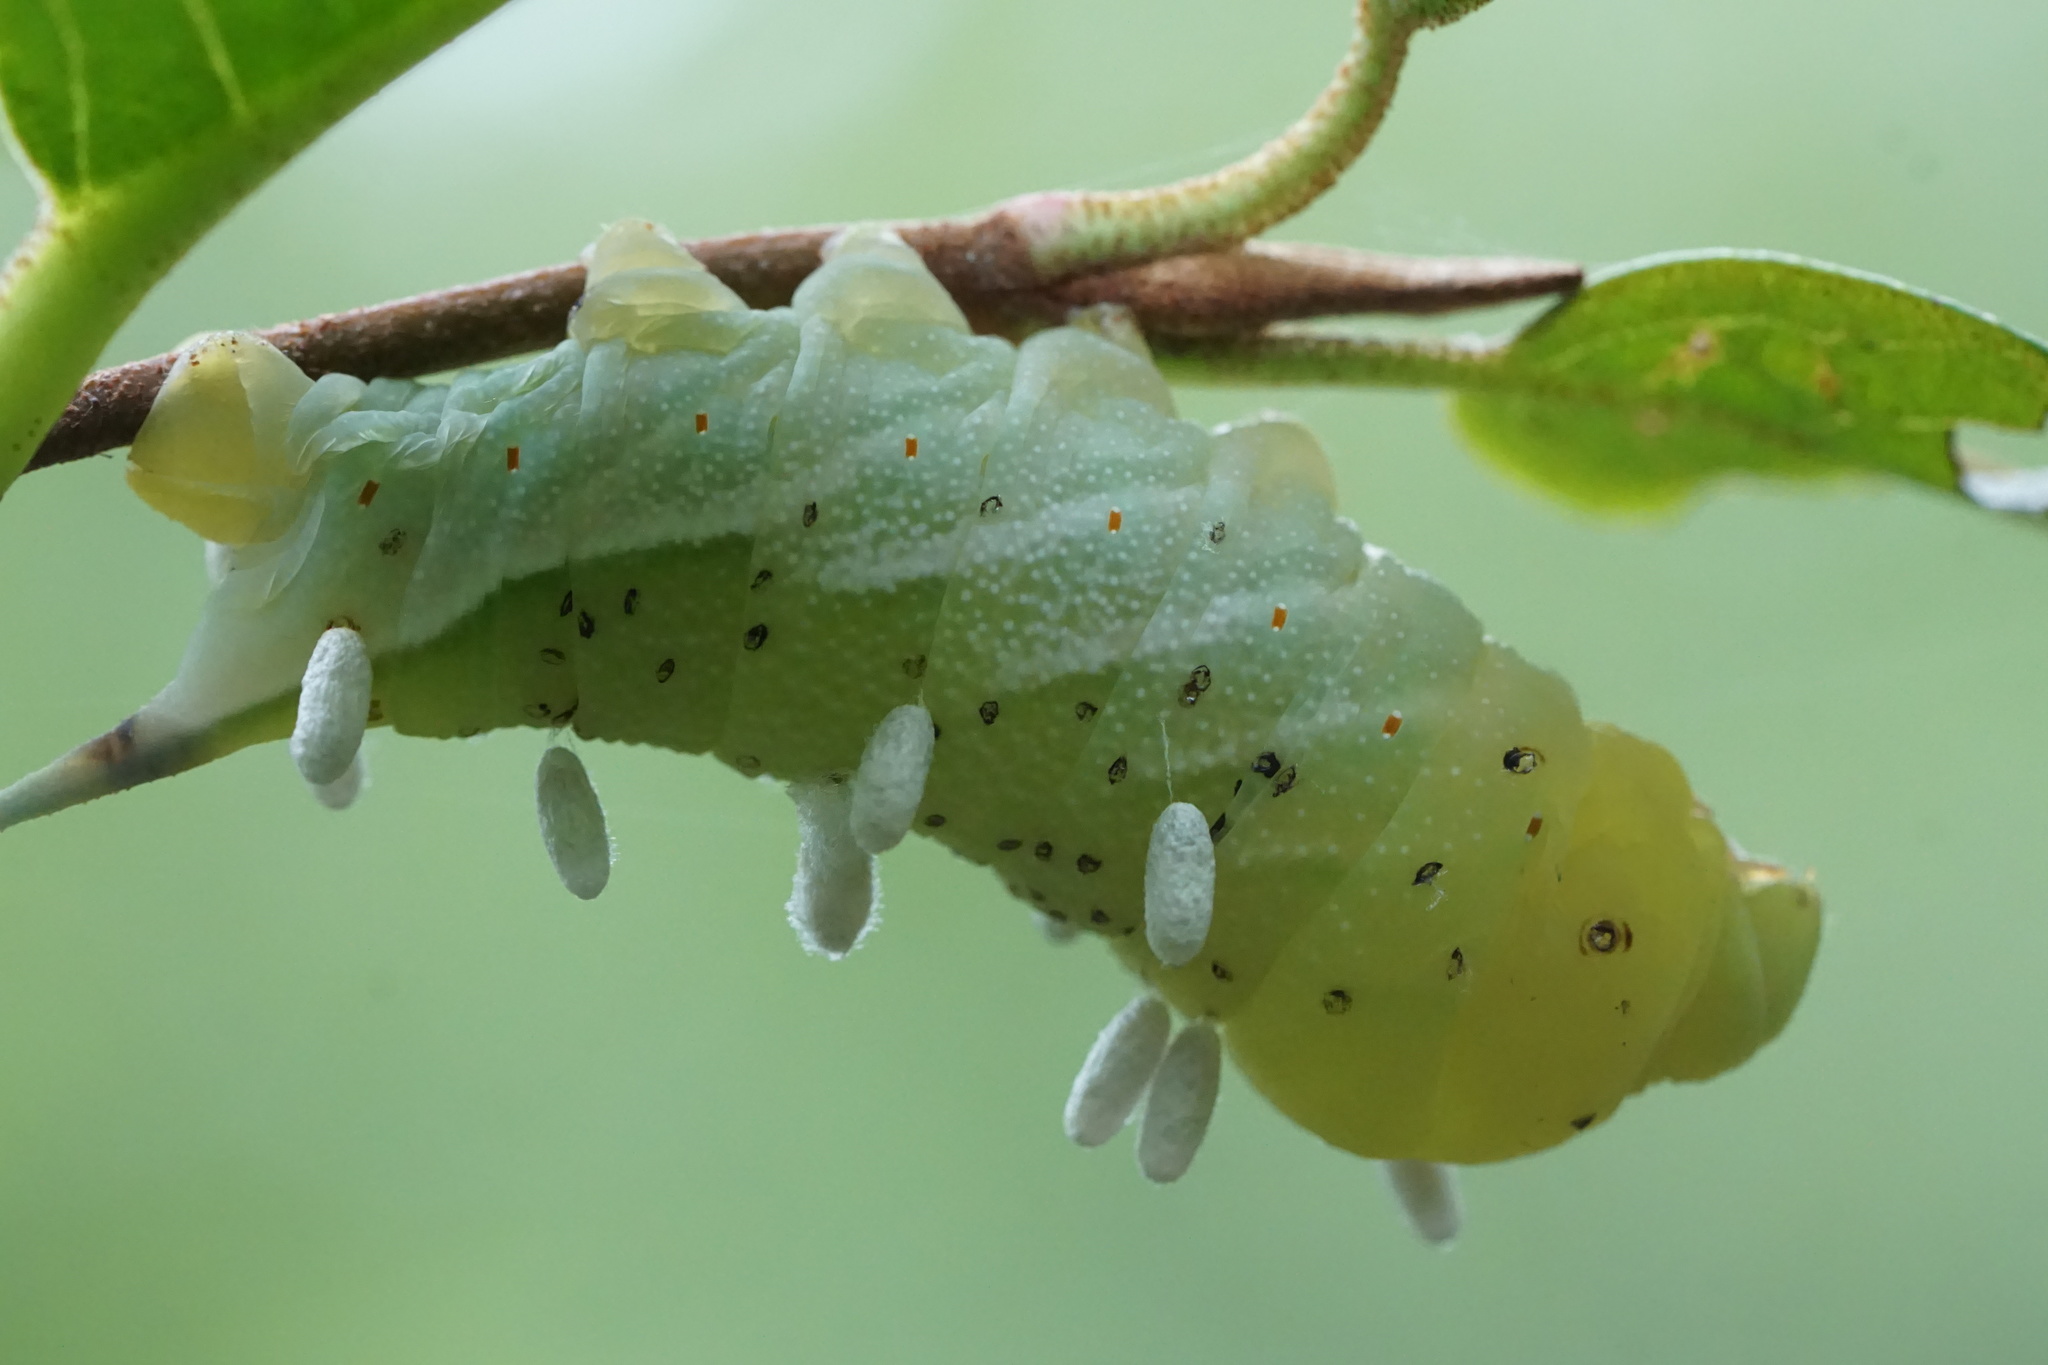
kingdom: Animalia
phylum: Arthropoda
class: Insecta
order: Lepidoptera
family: Sphingidae
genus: Darapsa
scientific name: Darapsa choerilus
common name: Azalea sphinx
